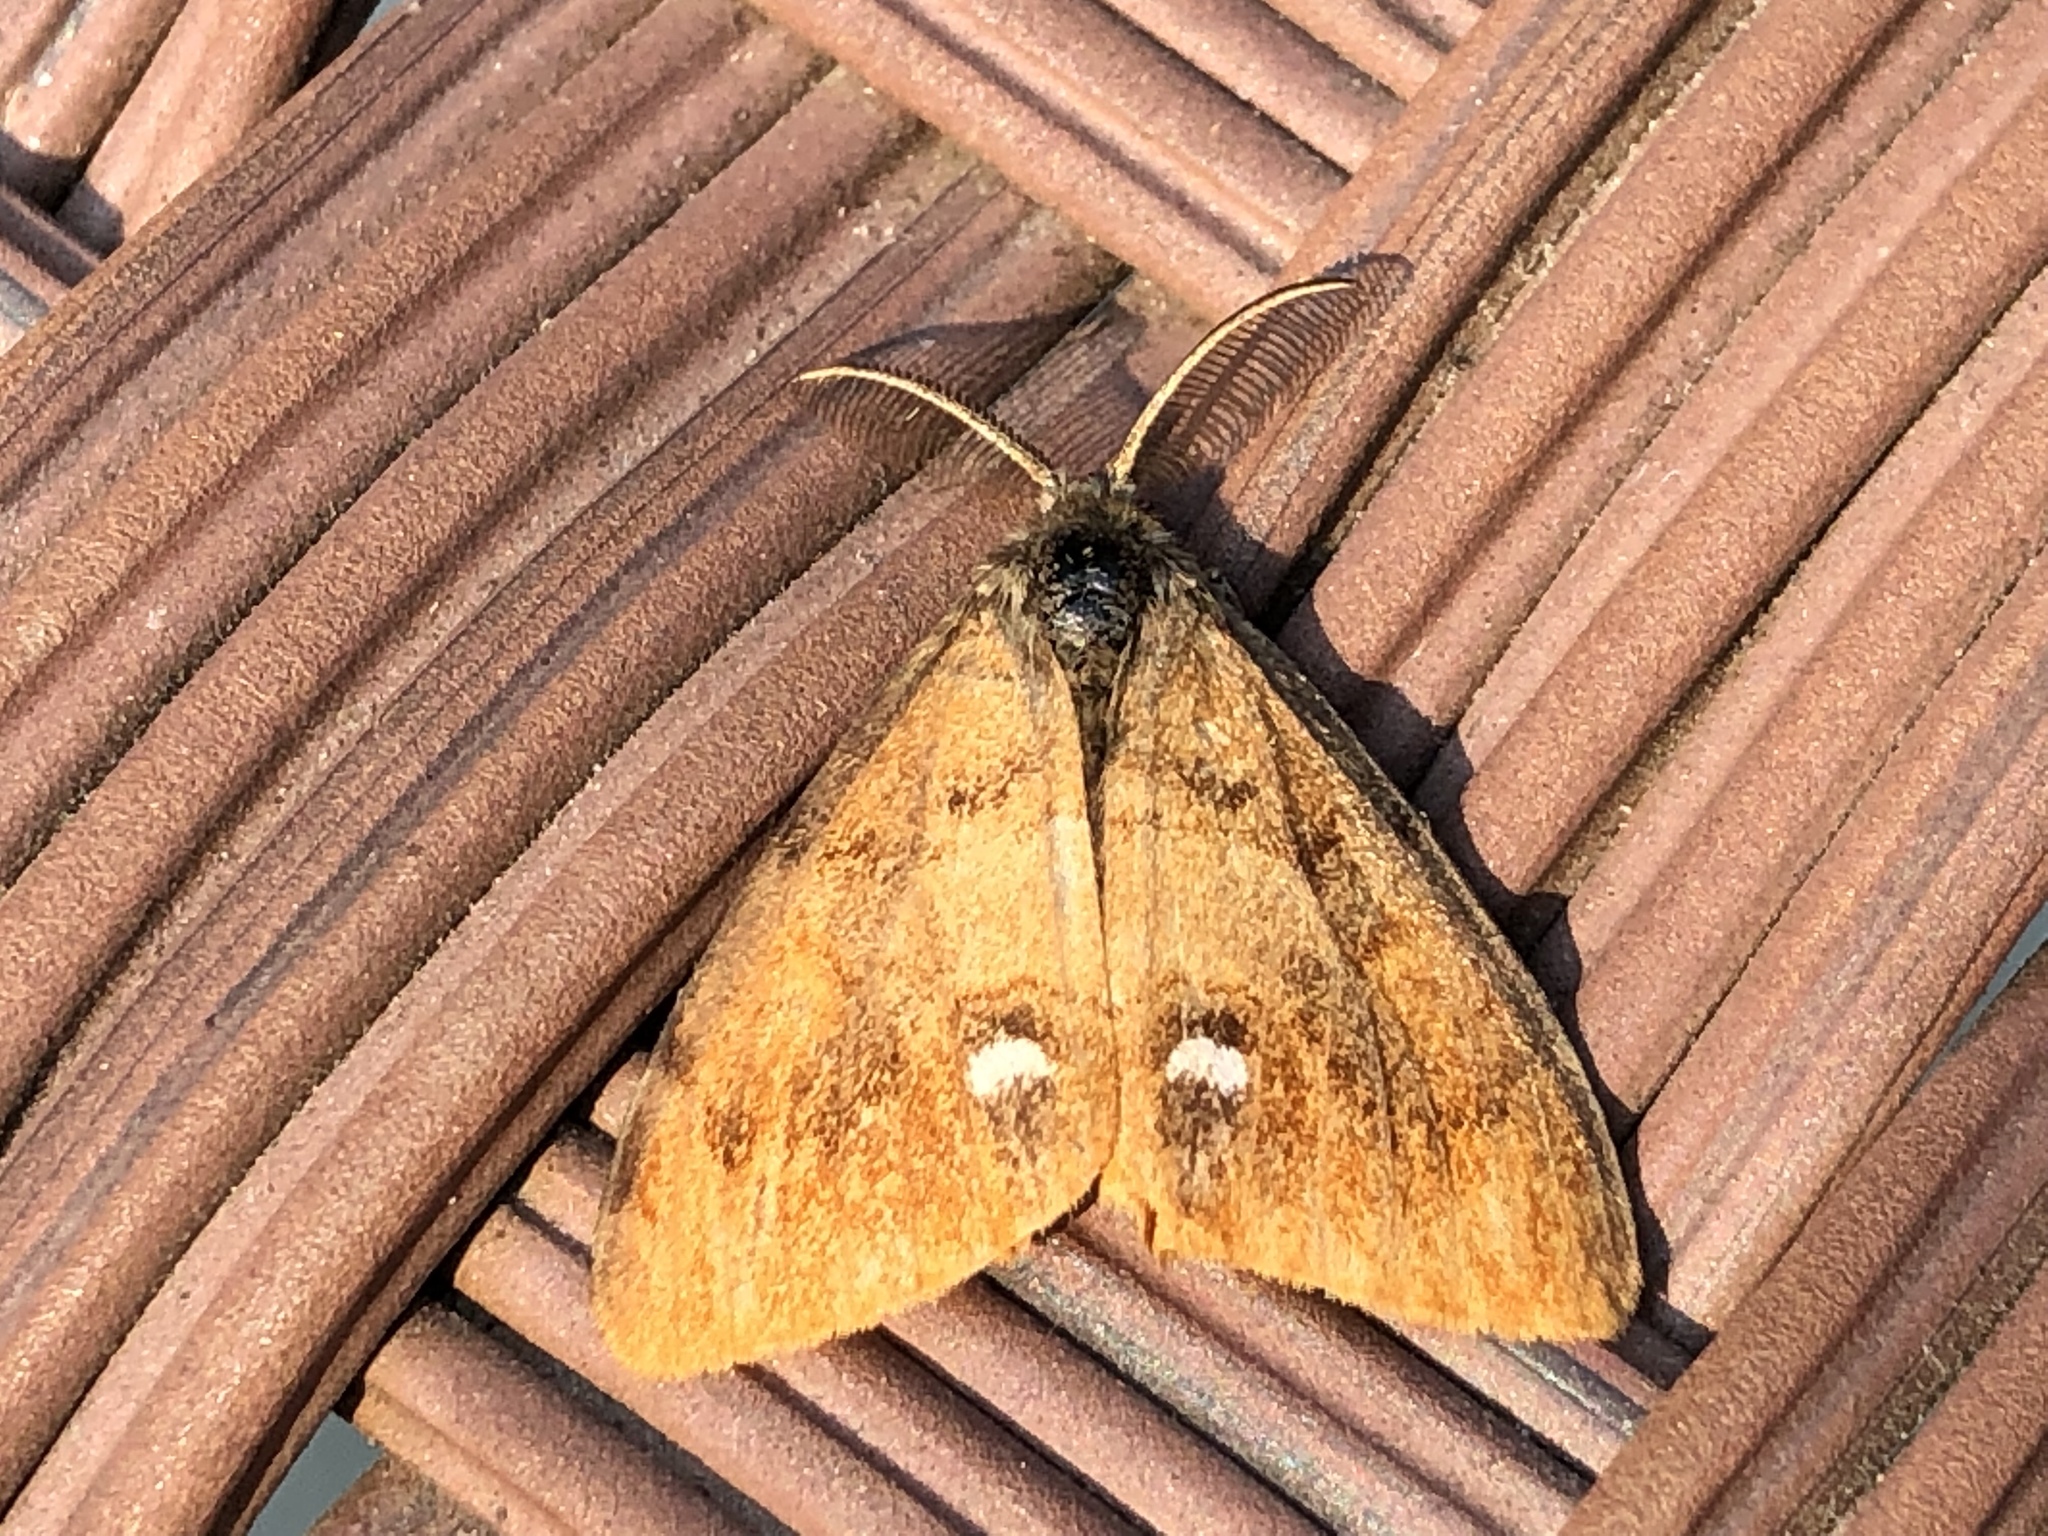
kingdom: Animalia
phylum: Arthropoda
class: Insecta
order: Lepidoptera
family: Erebidae
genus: Orgyia
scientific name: Orgyia antiqua
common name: Vapourer
